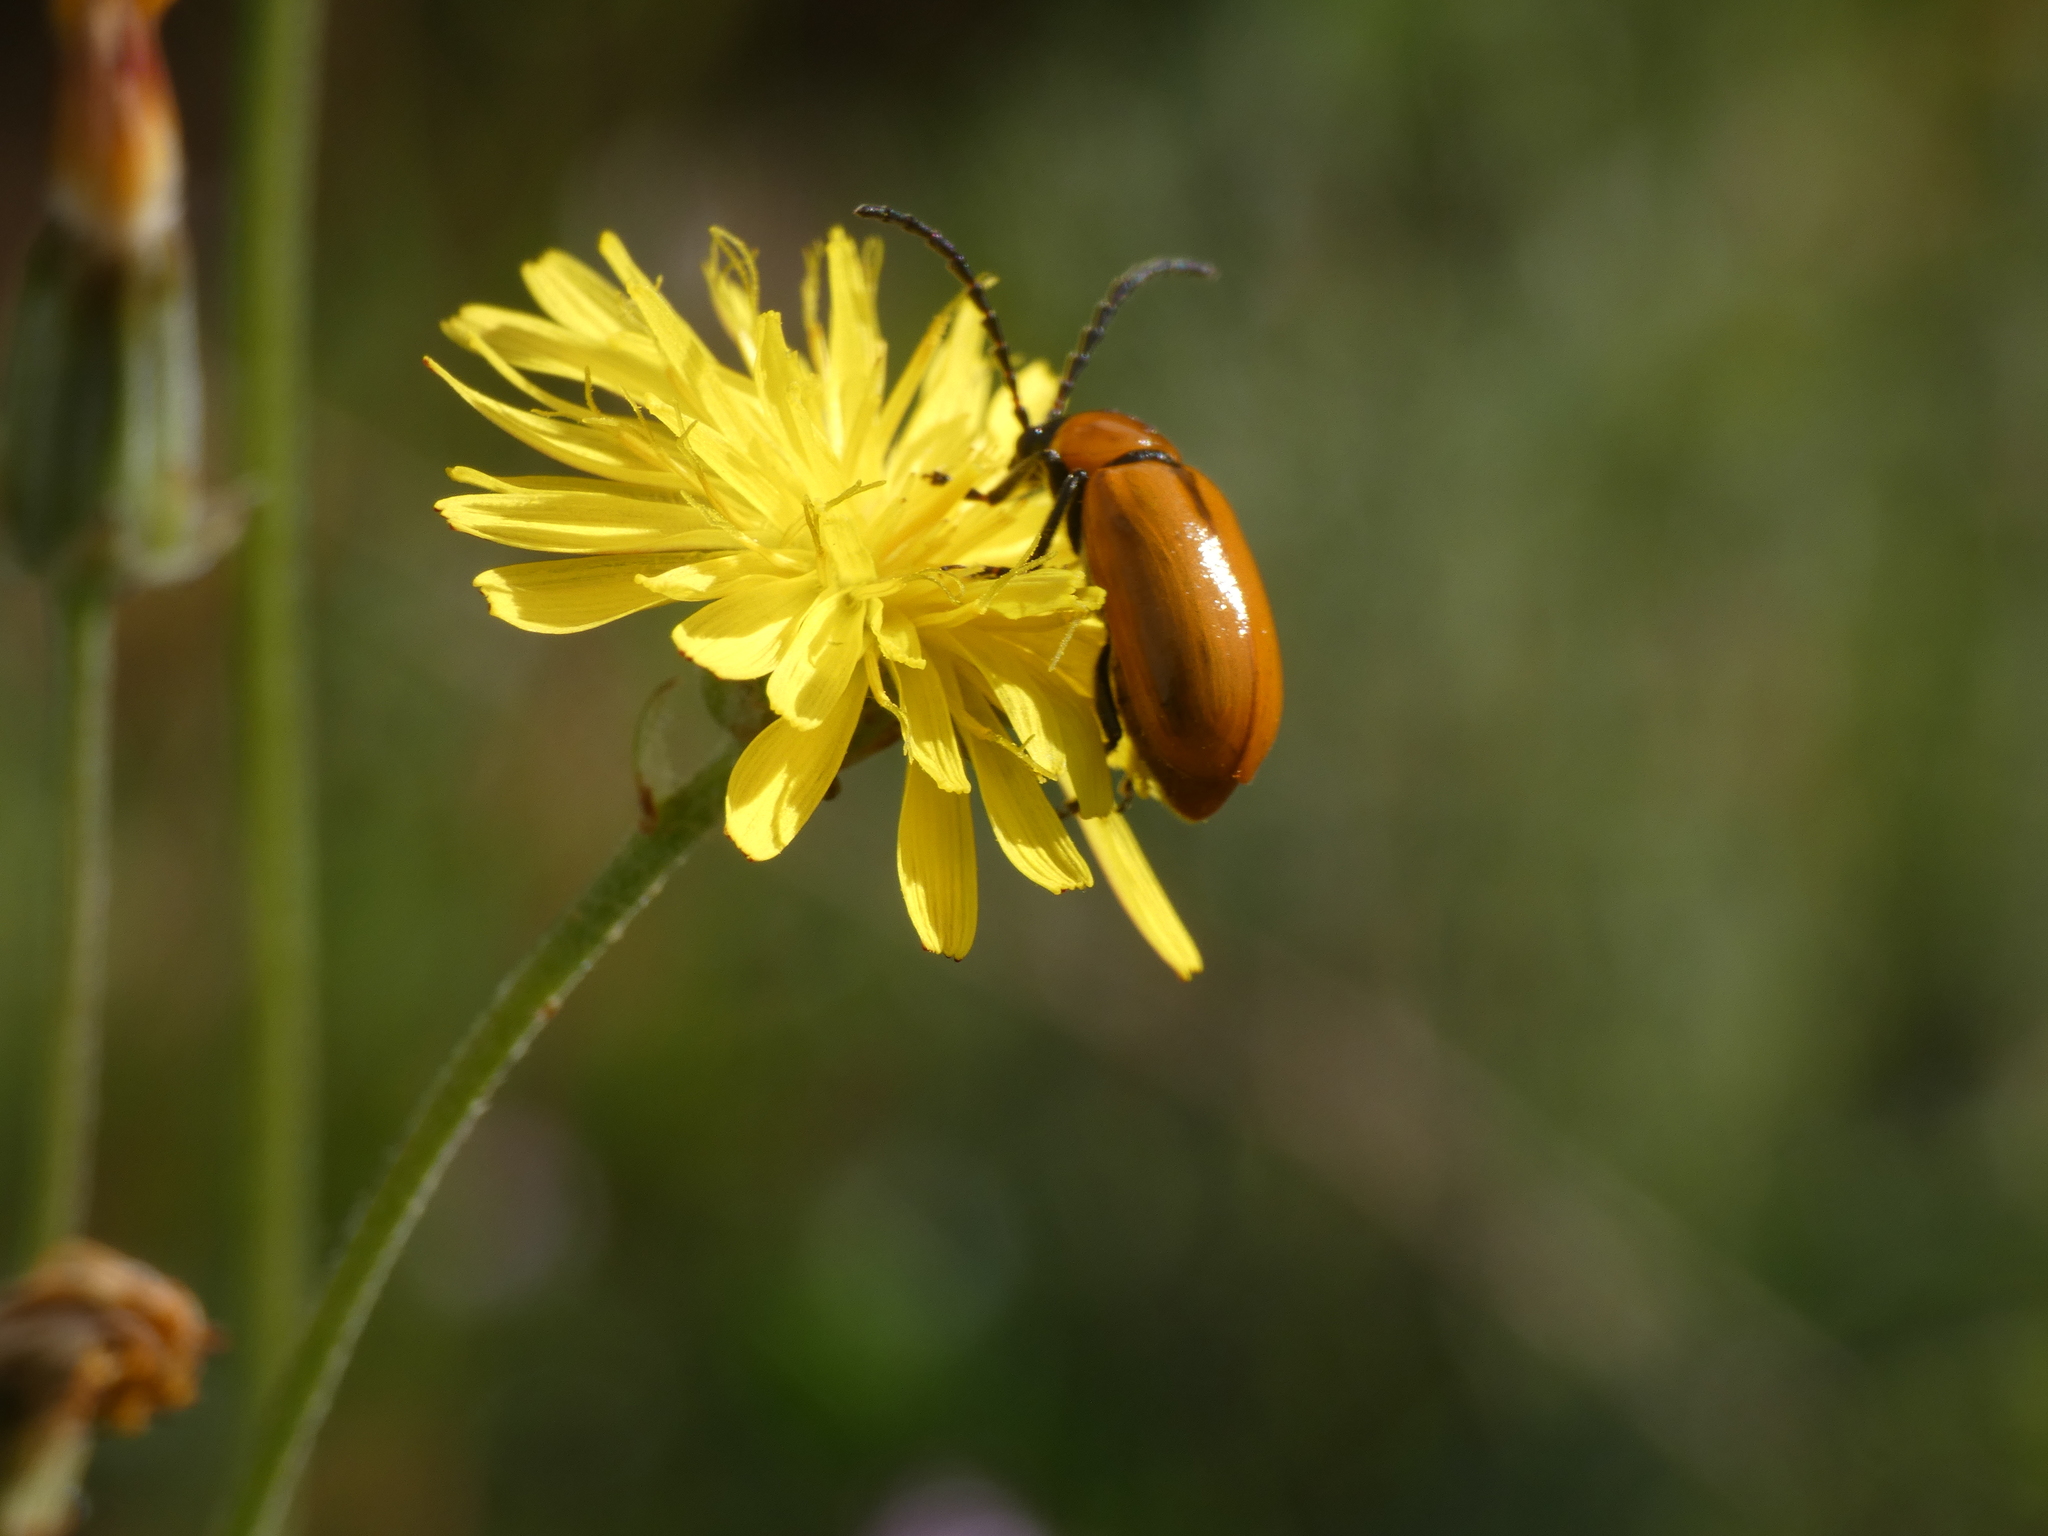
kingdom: Animalia
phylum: Arthropoda
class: Insecta
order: Coleoptera
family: Chrysomelidae
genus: Exosoma
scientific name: Exosoma lusitanicum
